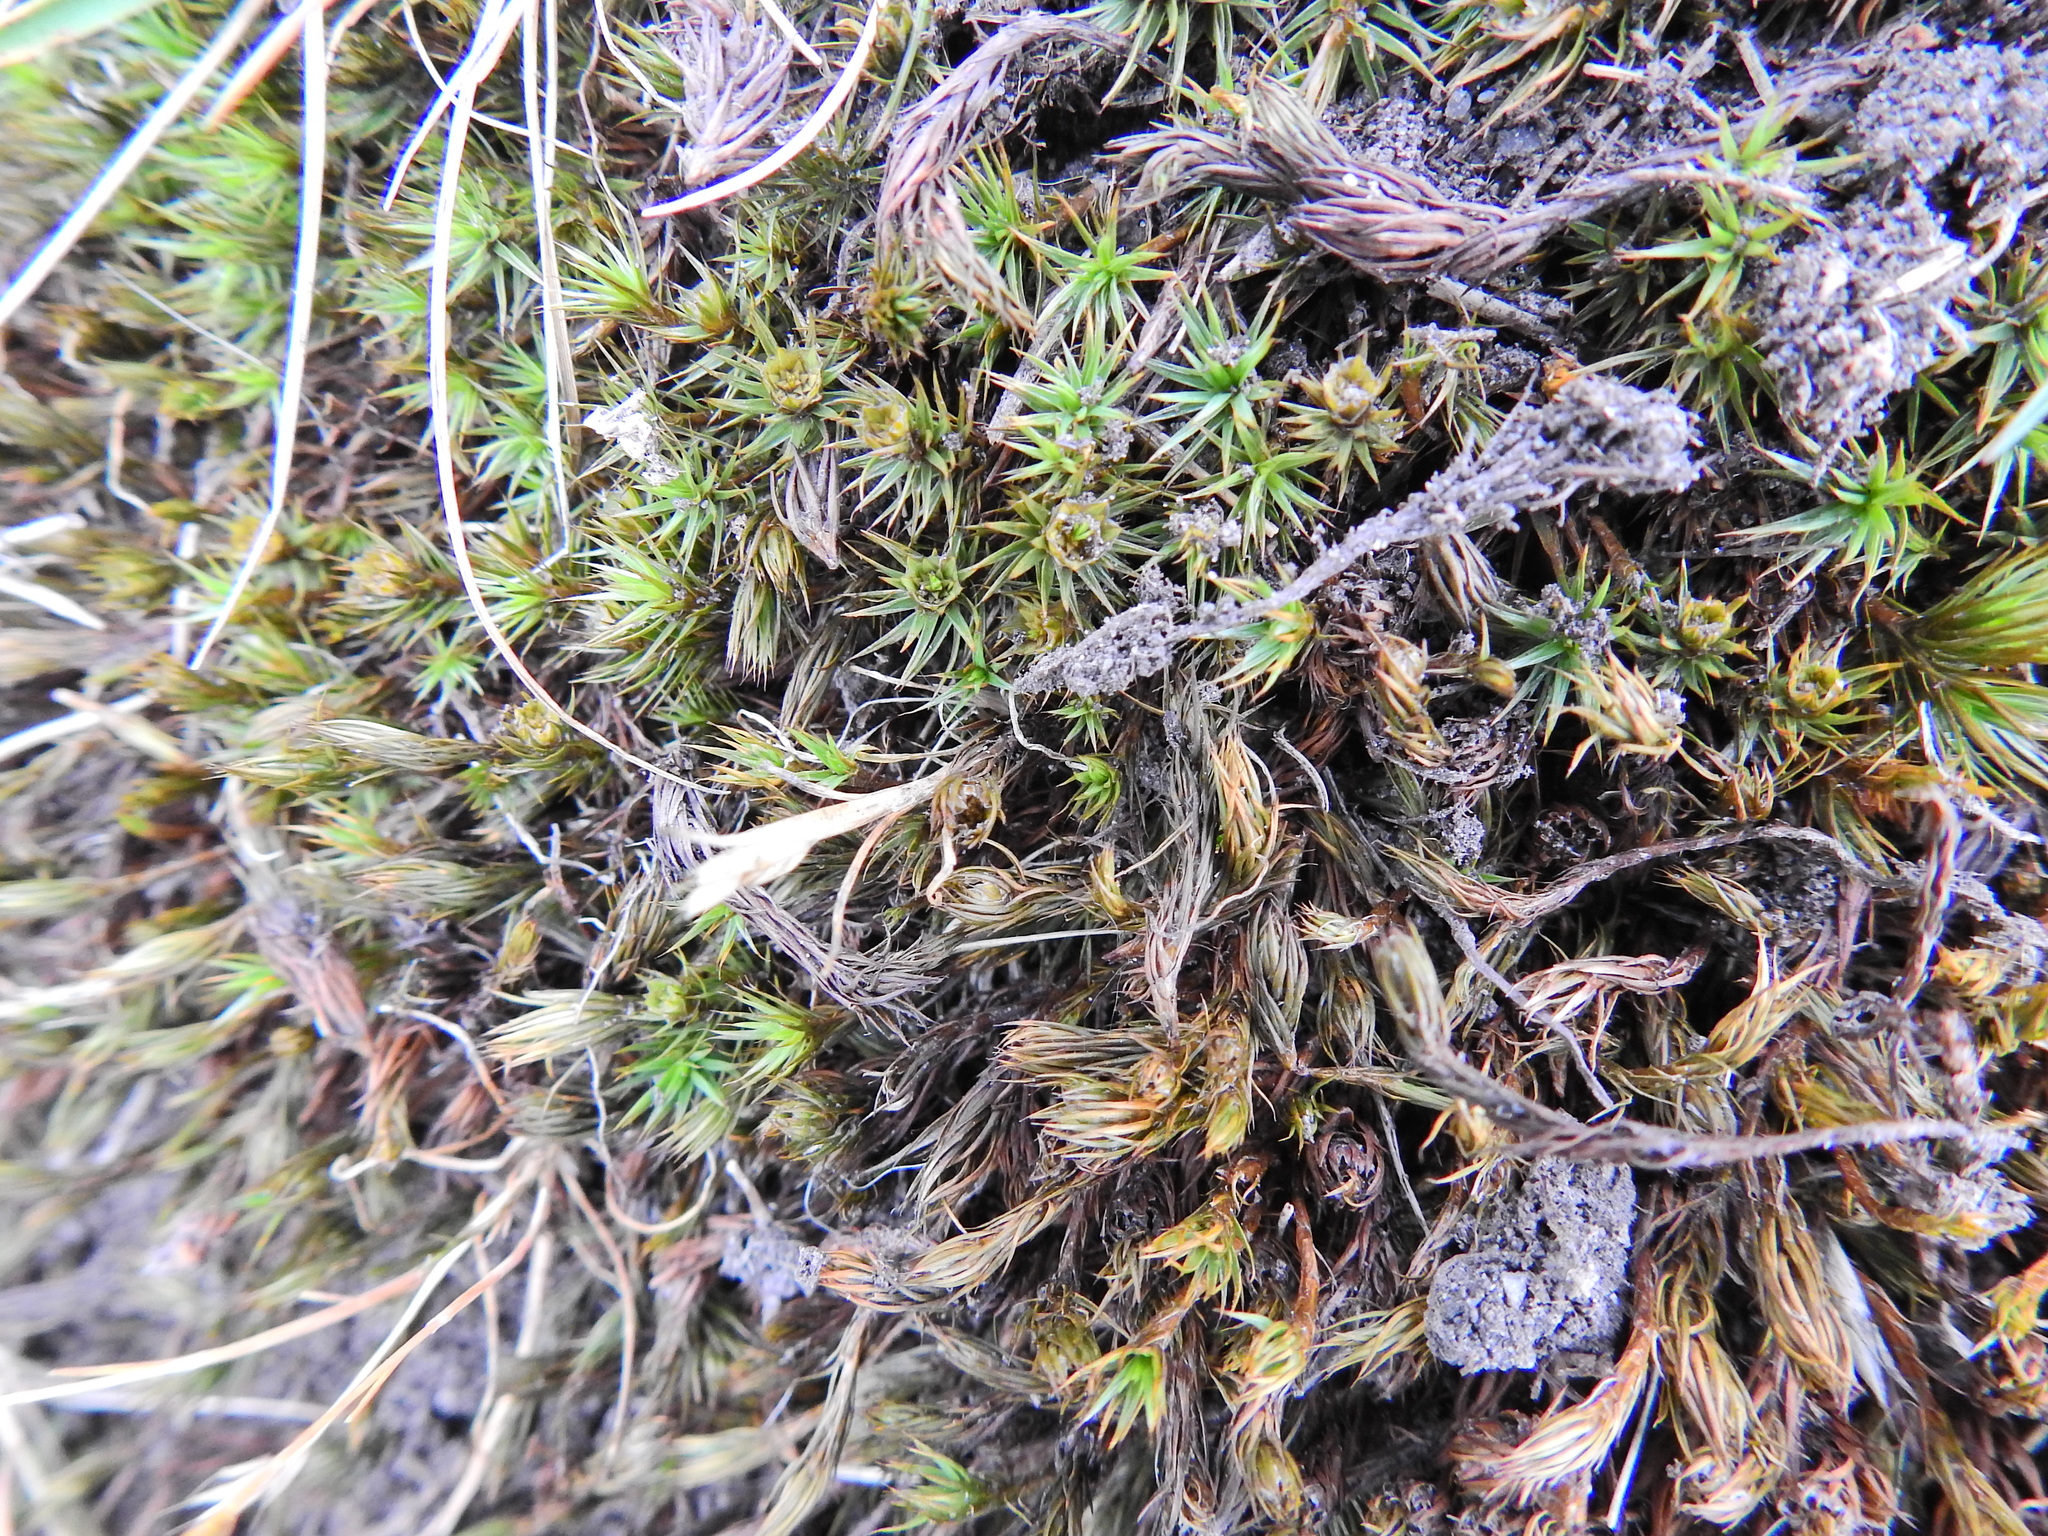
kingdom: Plantae
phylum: Bryophyta
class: Polytrichopsida
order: Polytrichales
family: Polytrichaceae
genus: Polytrichum
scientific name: Polytrichum juniperinum
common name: Juniper haircap moss
